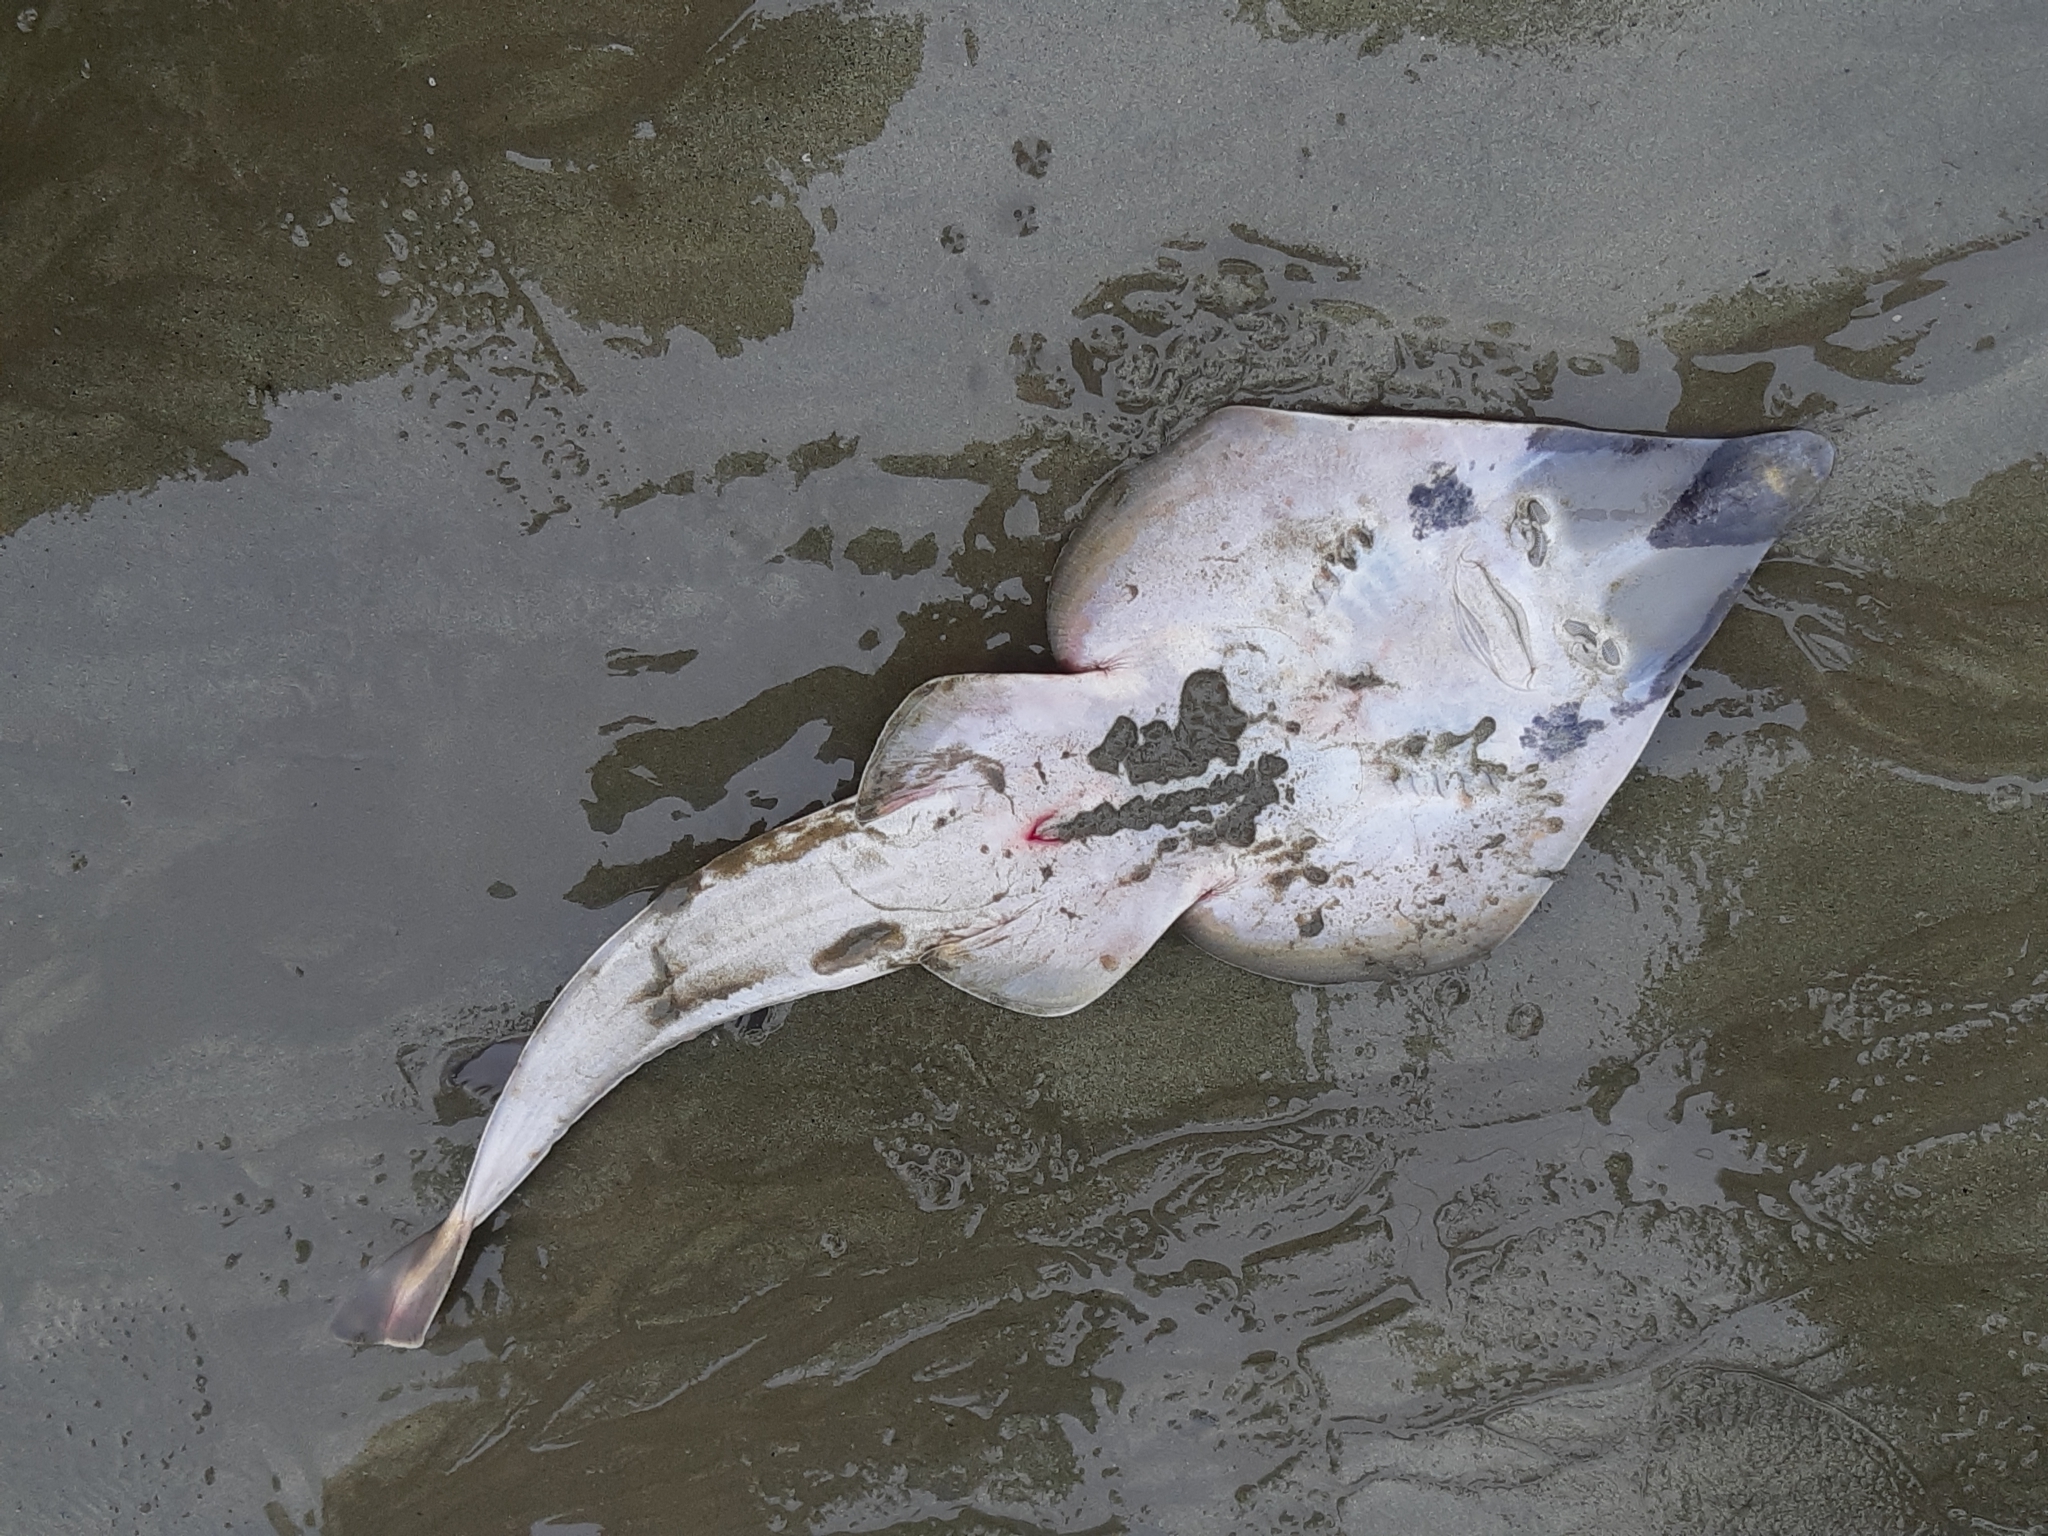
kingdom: Animalia
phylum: Chordata
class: Elasmobranchii
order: Rhinopristiformes
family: Rhinobatidae
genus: Pseudobatos
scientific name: Pseudobatos prahli
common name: Gorgona guitarfish
